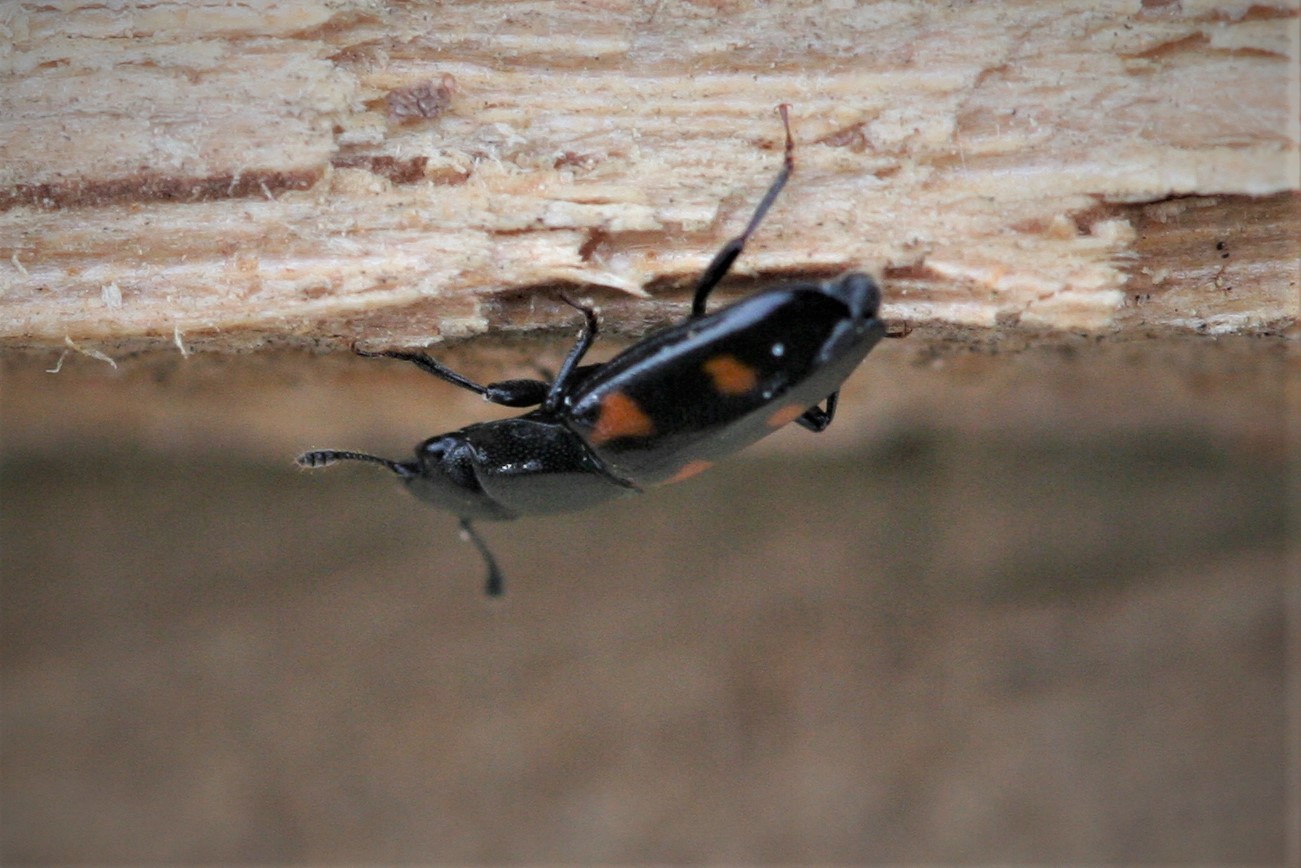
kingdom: Animalia
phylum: Arthropoda
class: Insecta
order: Coleoptera
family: Nitidulidae
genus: Glischrochilus
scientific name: Glischrochilus quadripunctatus
